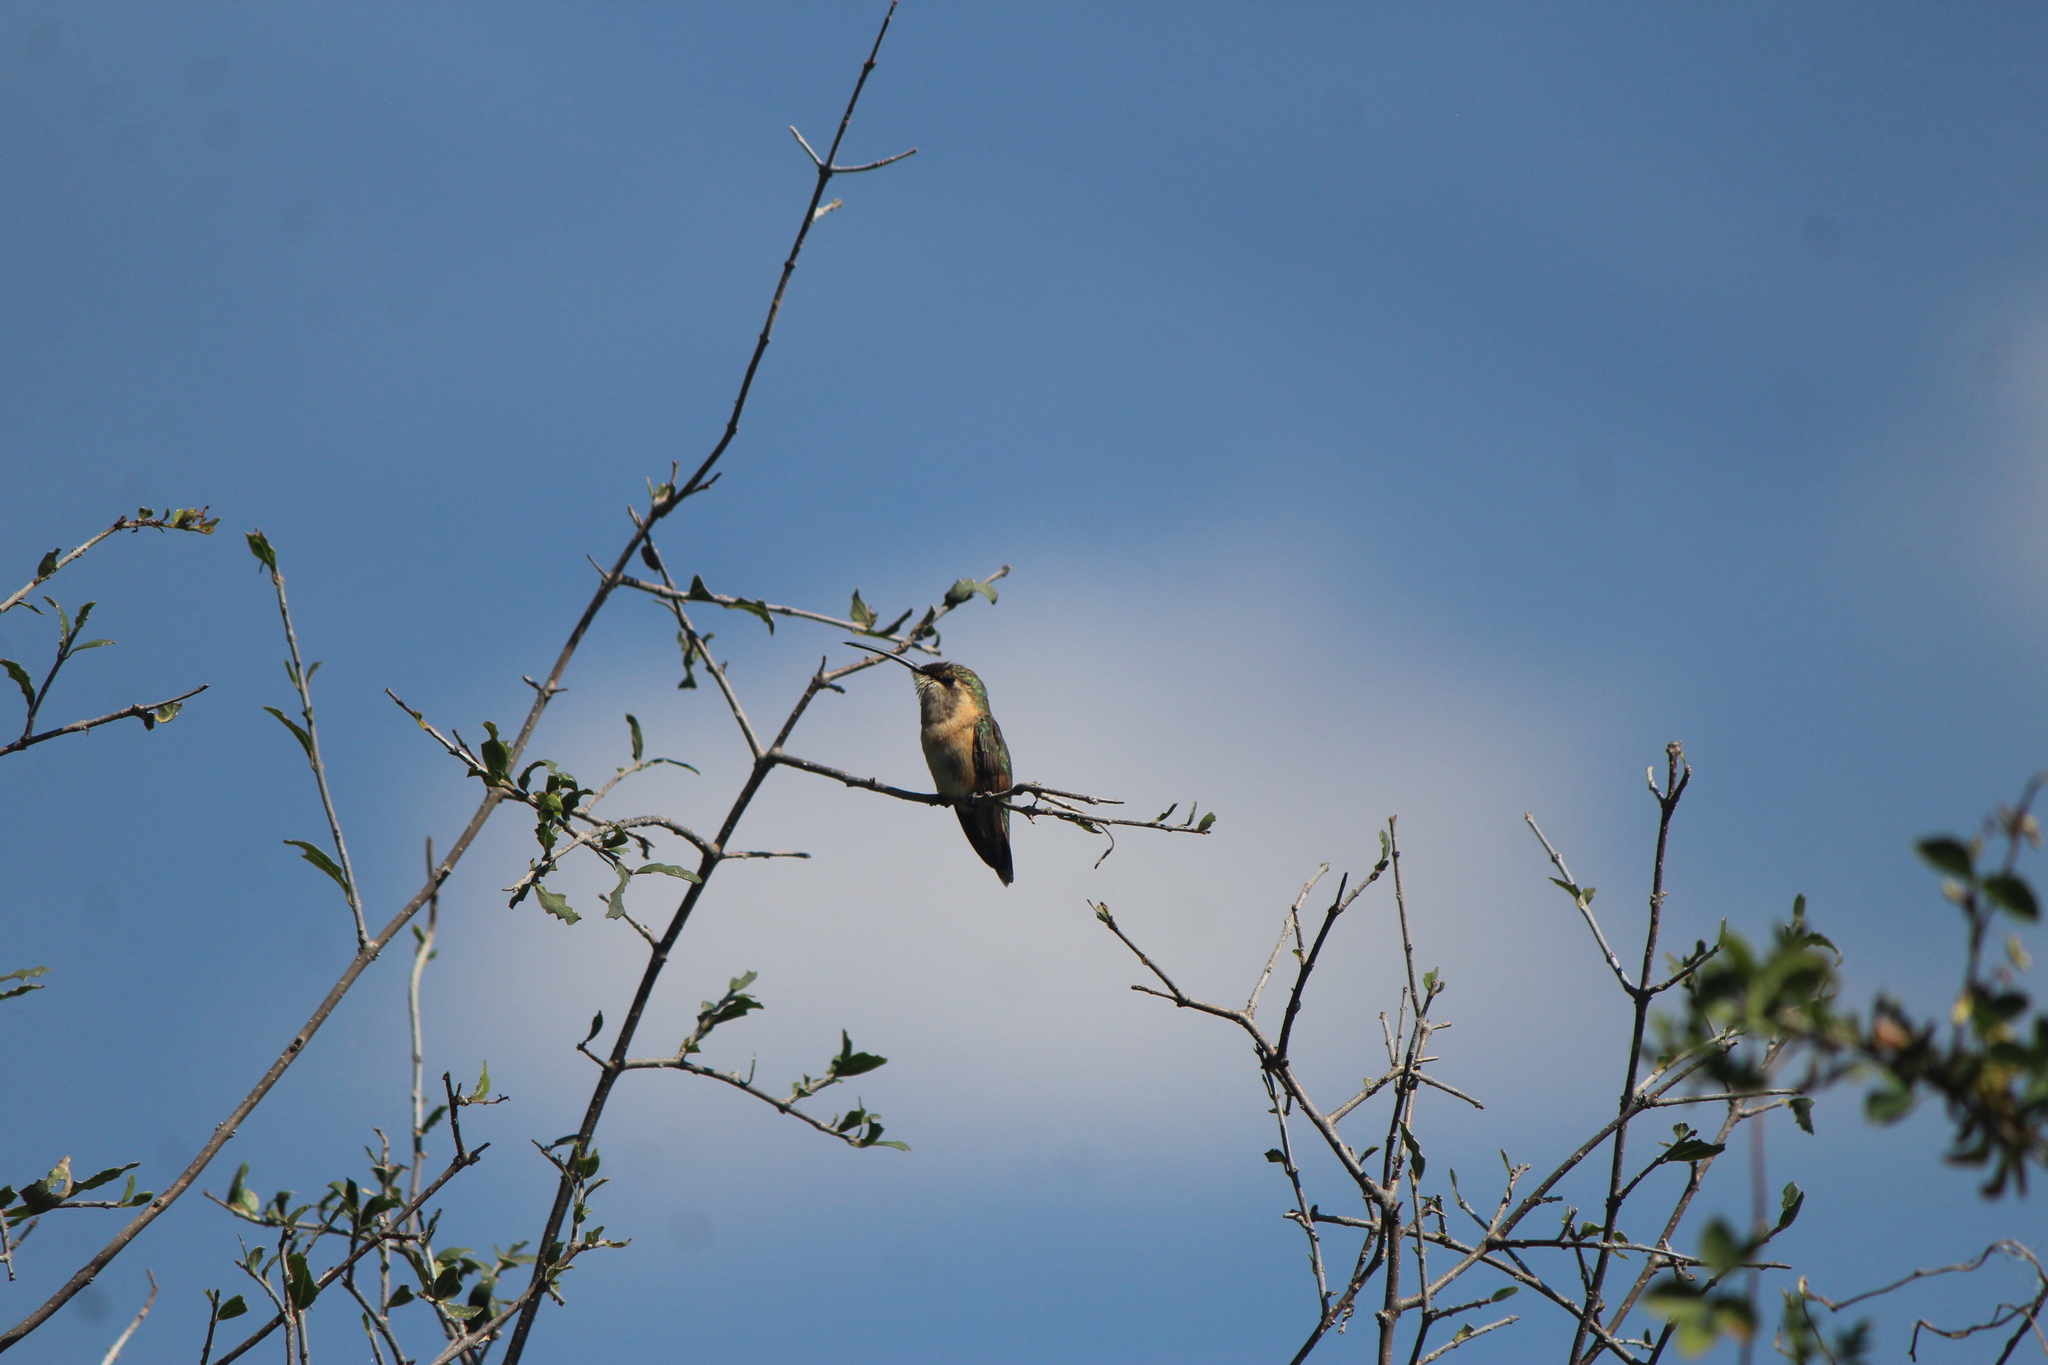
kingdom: Animalia
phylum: Chordata
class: Aves
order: Apodiformes
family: Trochilidae
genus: Calothorax
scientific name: Calothorax lucifer
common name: Lucifer sheartail
